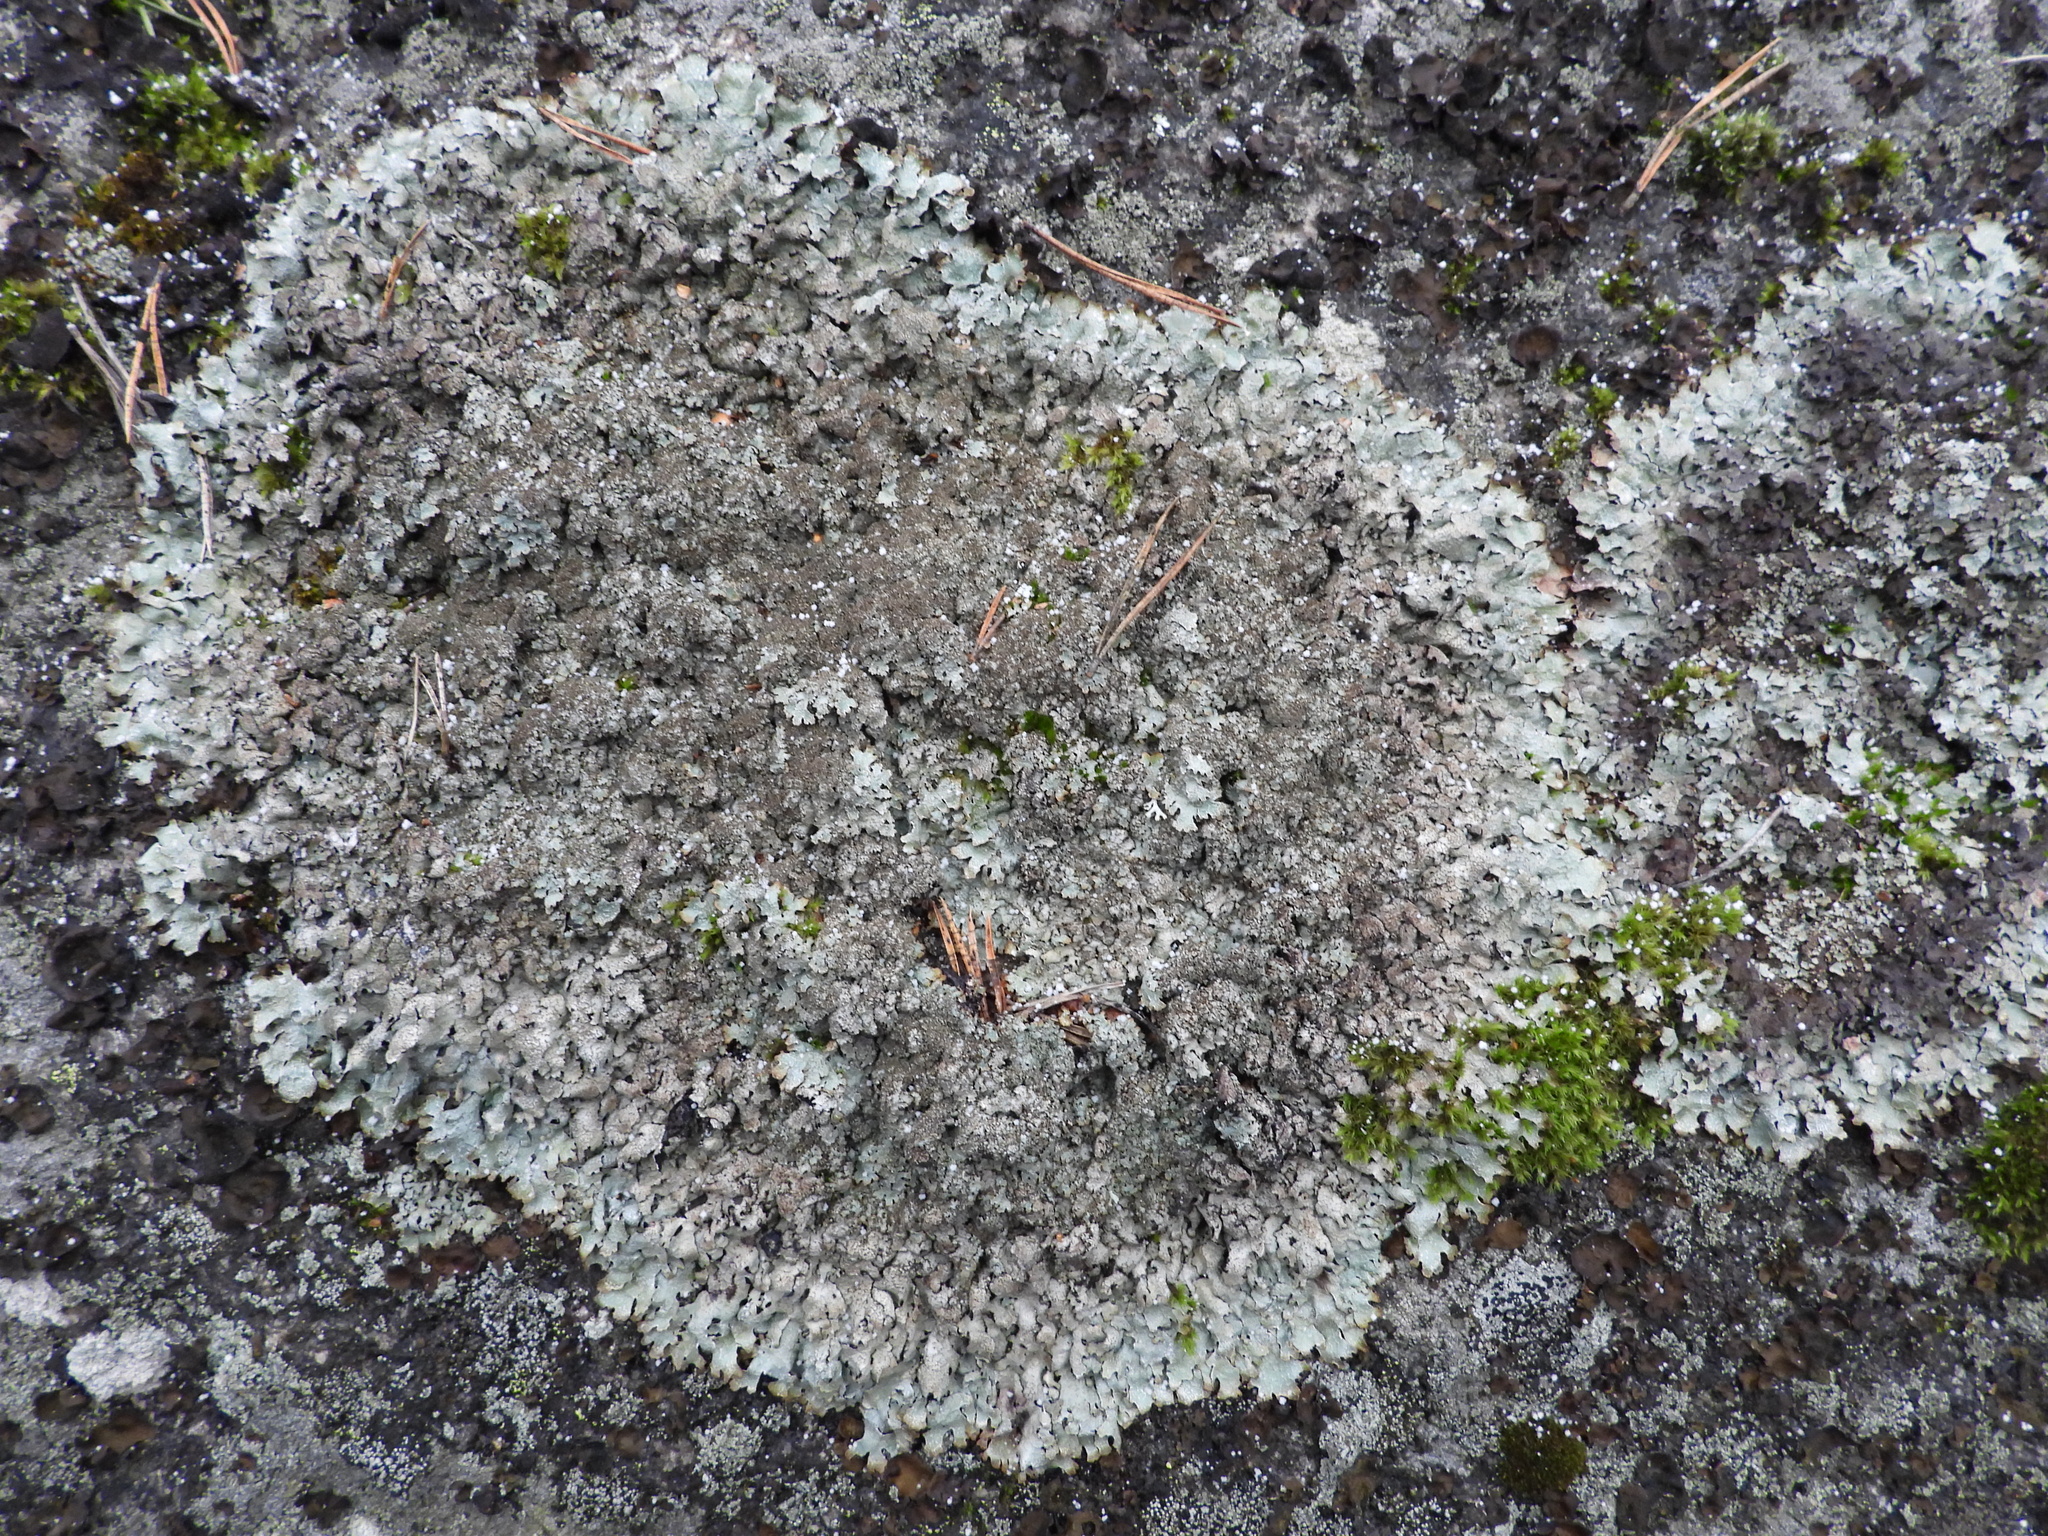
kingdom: Fungi
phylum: Ascomycota
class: Lecanoromycetes
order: Lecanorales
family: Parmeliaceae
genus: Parmelia
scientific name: Parmelia saxatilis
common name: Salted shield lichen
